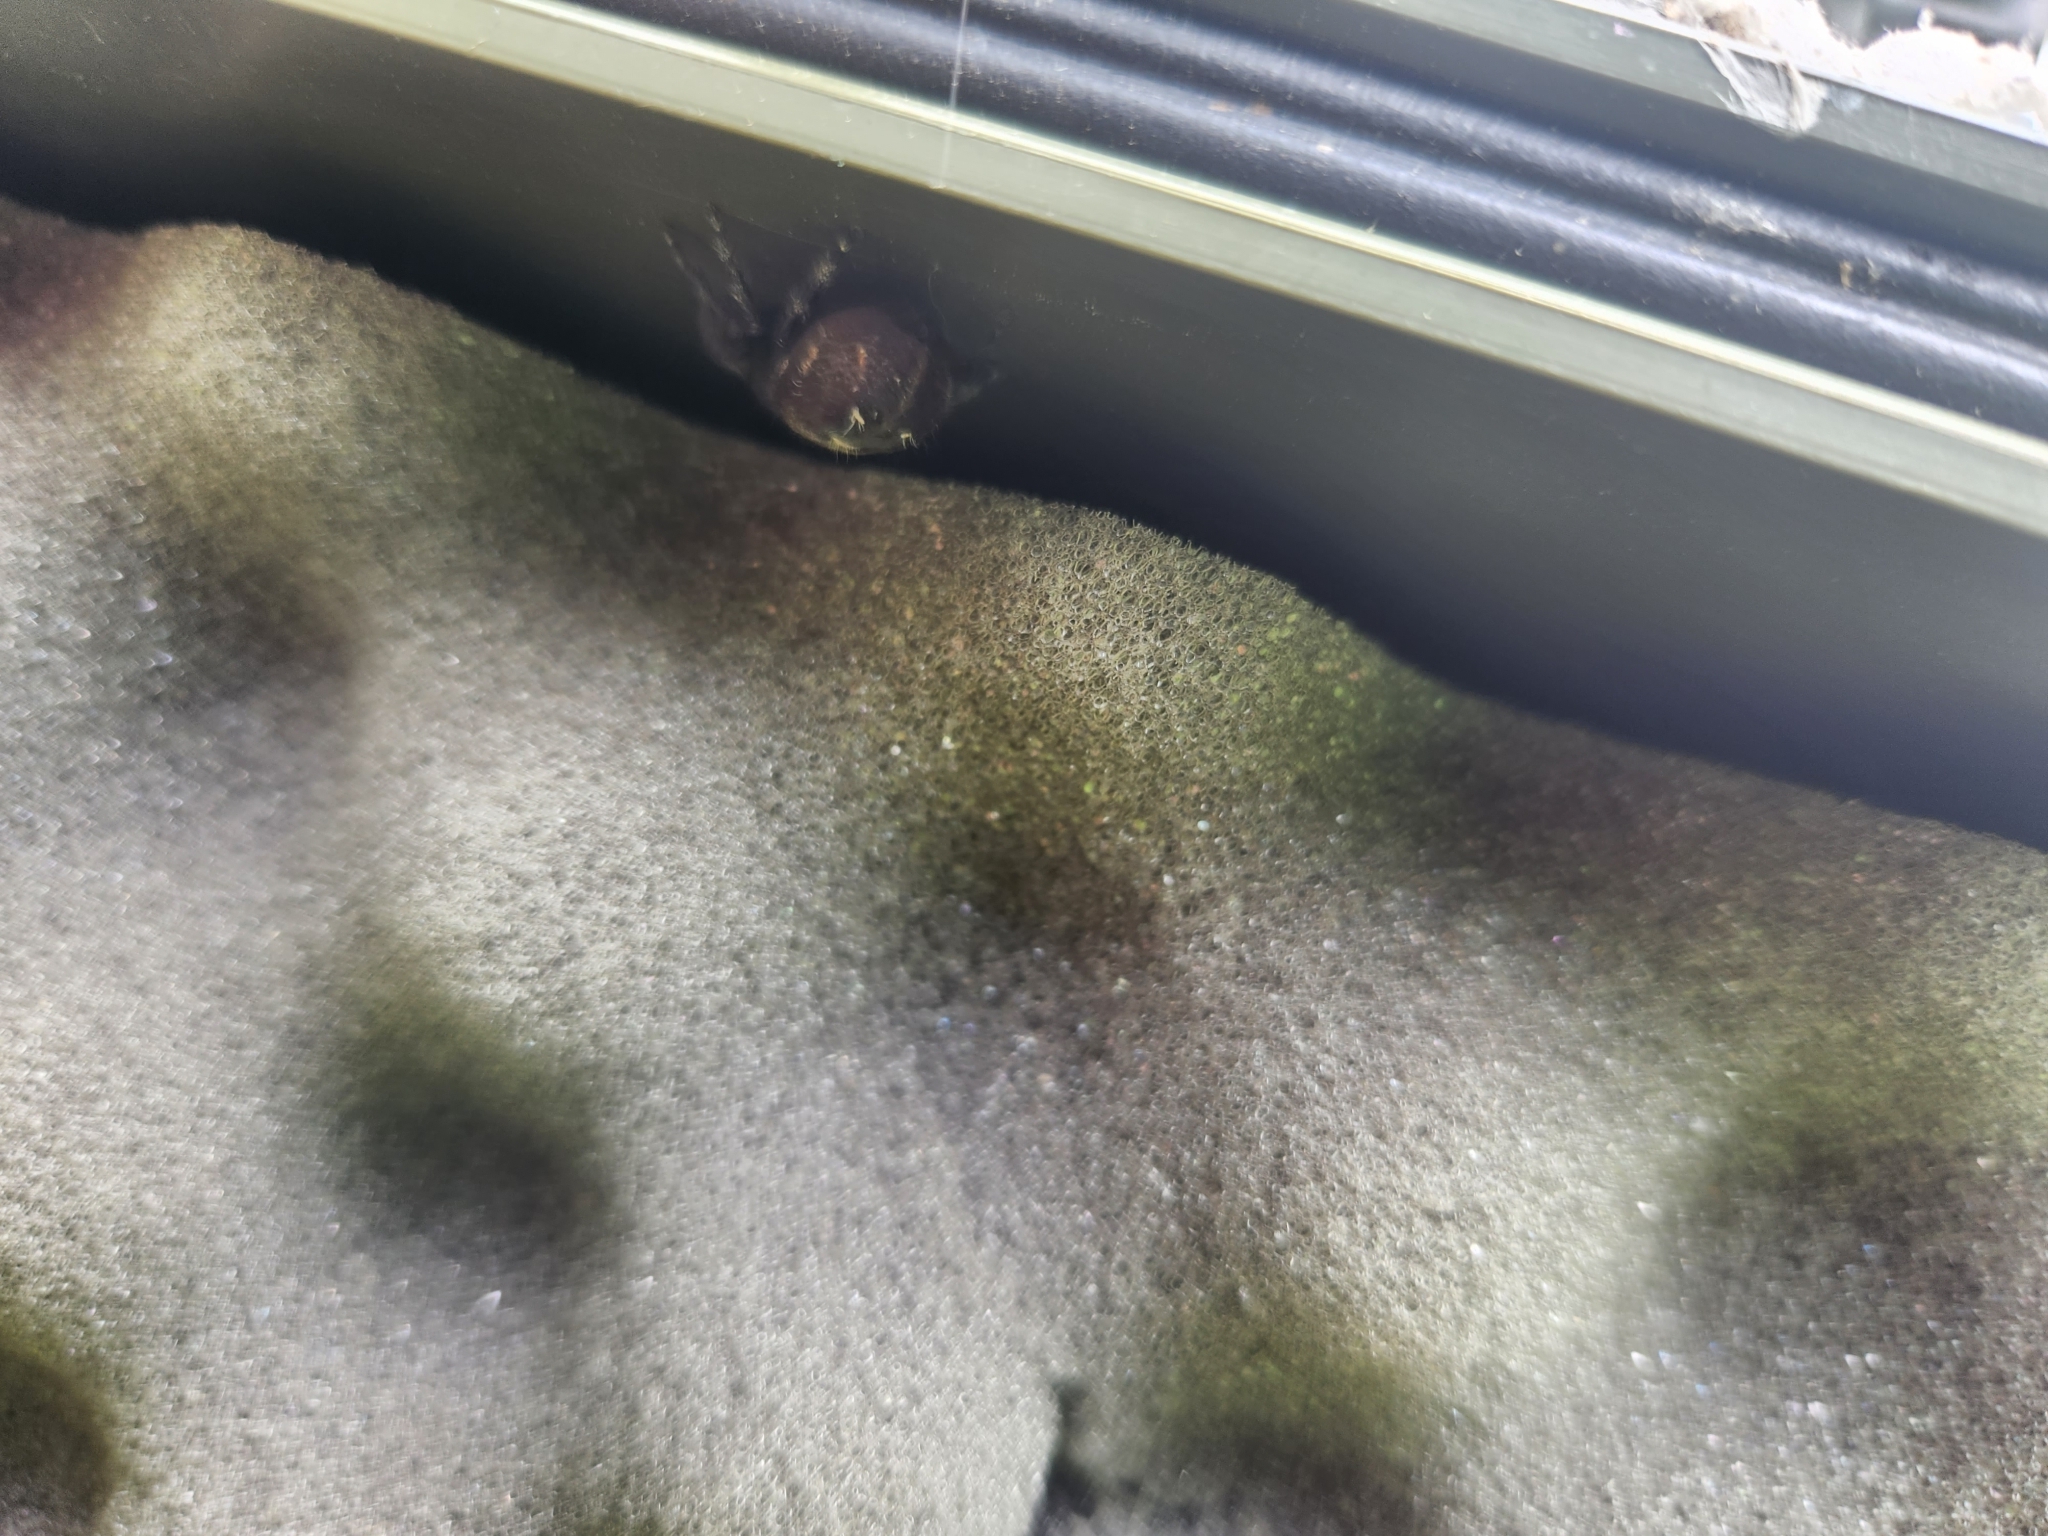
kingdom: Animalia
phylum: Arthropoda
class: Arachnida
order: Araneae
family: Salticidae
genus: Phidippus
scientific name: Phidippus audax
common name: Bold jumper
